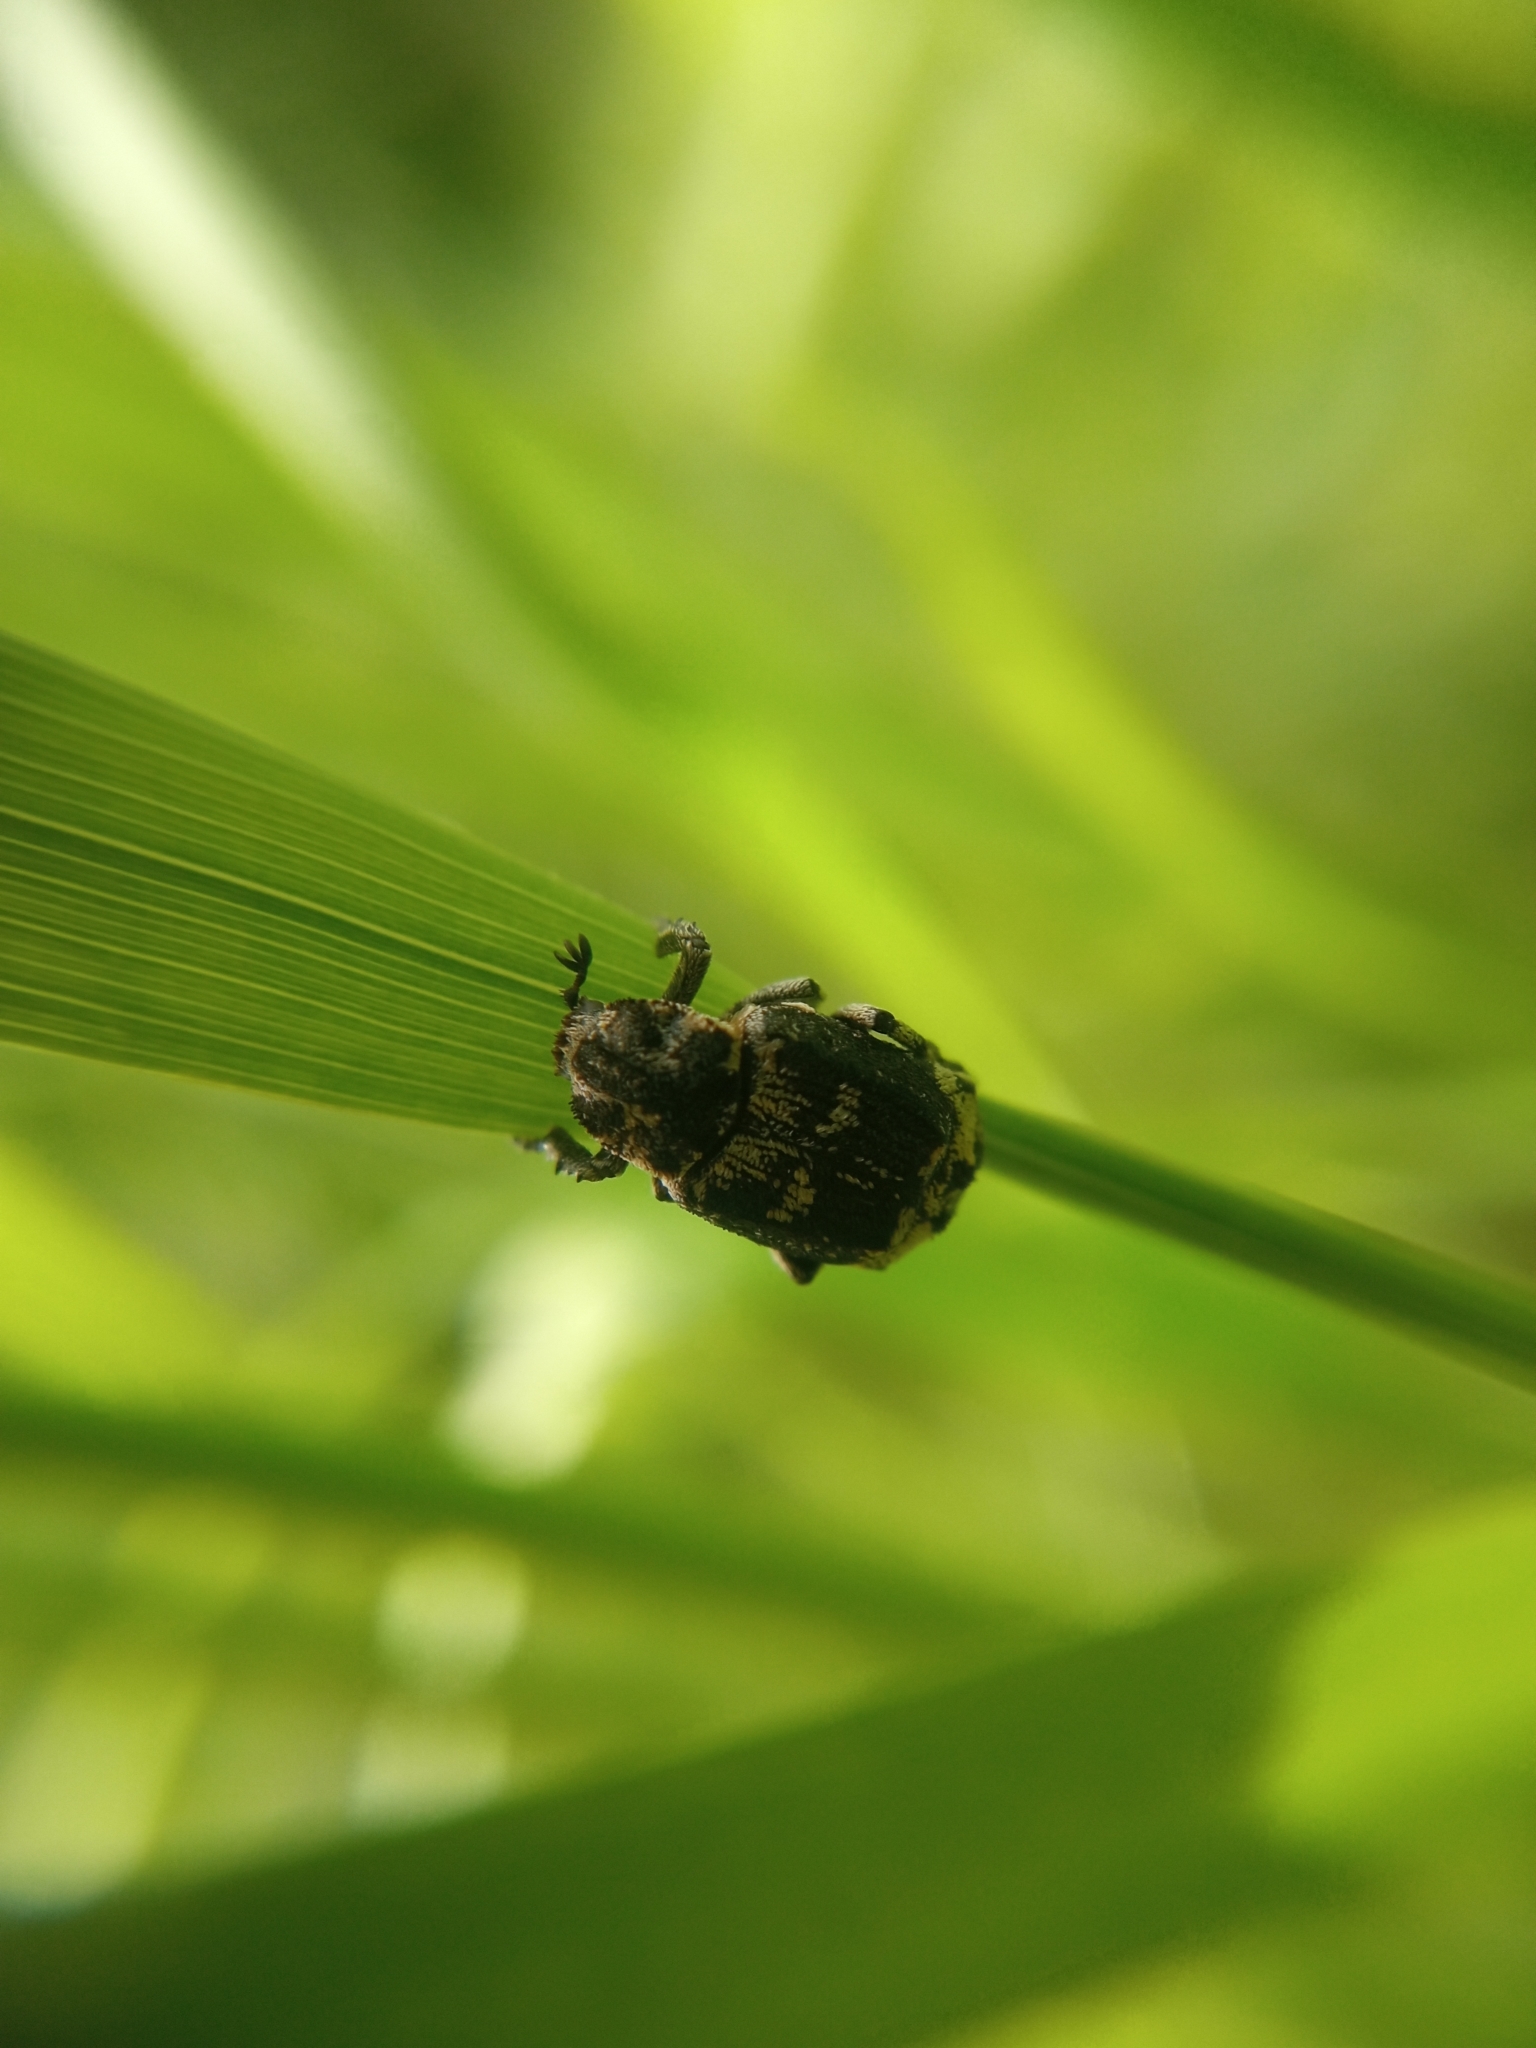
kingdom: Animalia
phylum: Arthropoda
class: Insecta
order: Coleoptera
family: Scarabaeidae
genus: Valgus
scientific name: Valgus hemipterus
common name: Bug flower chafer
